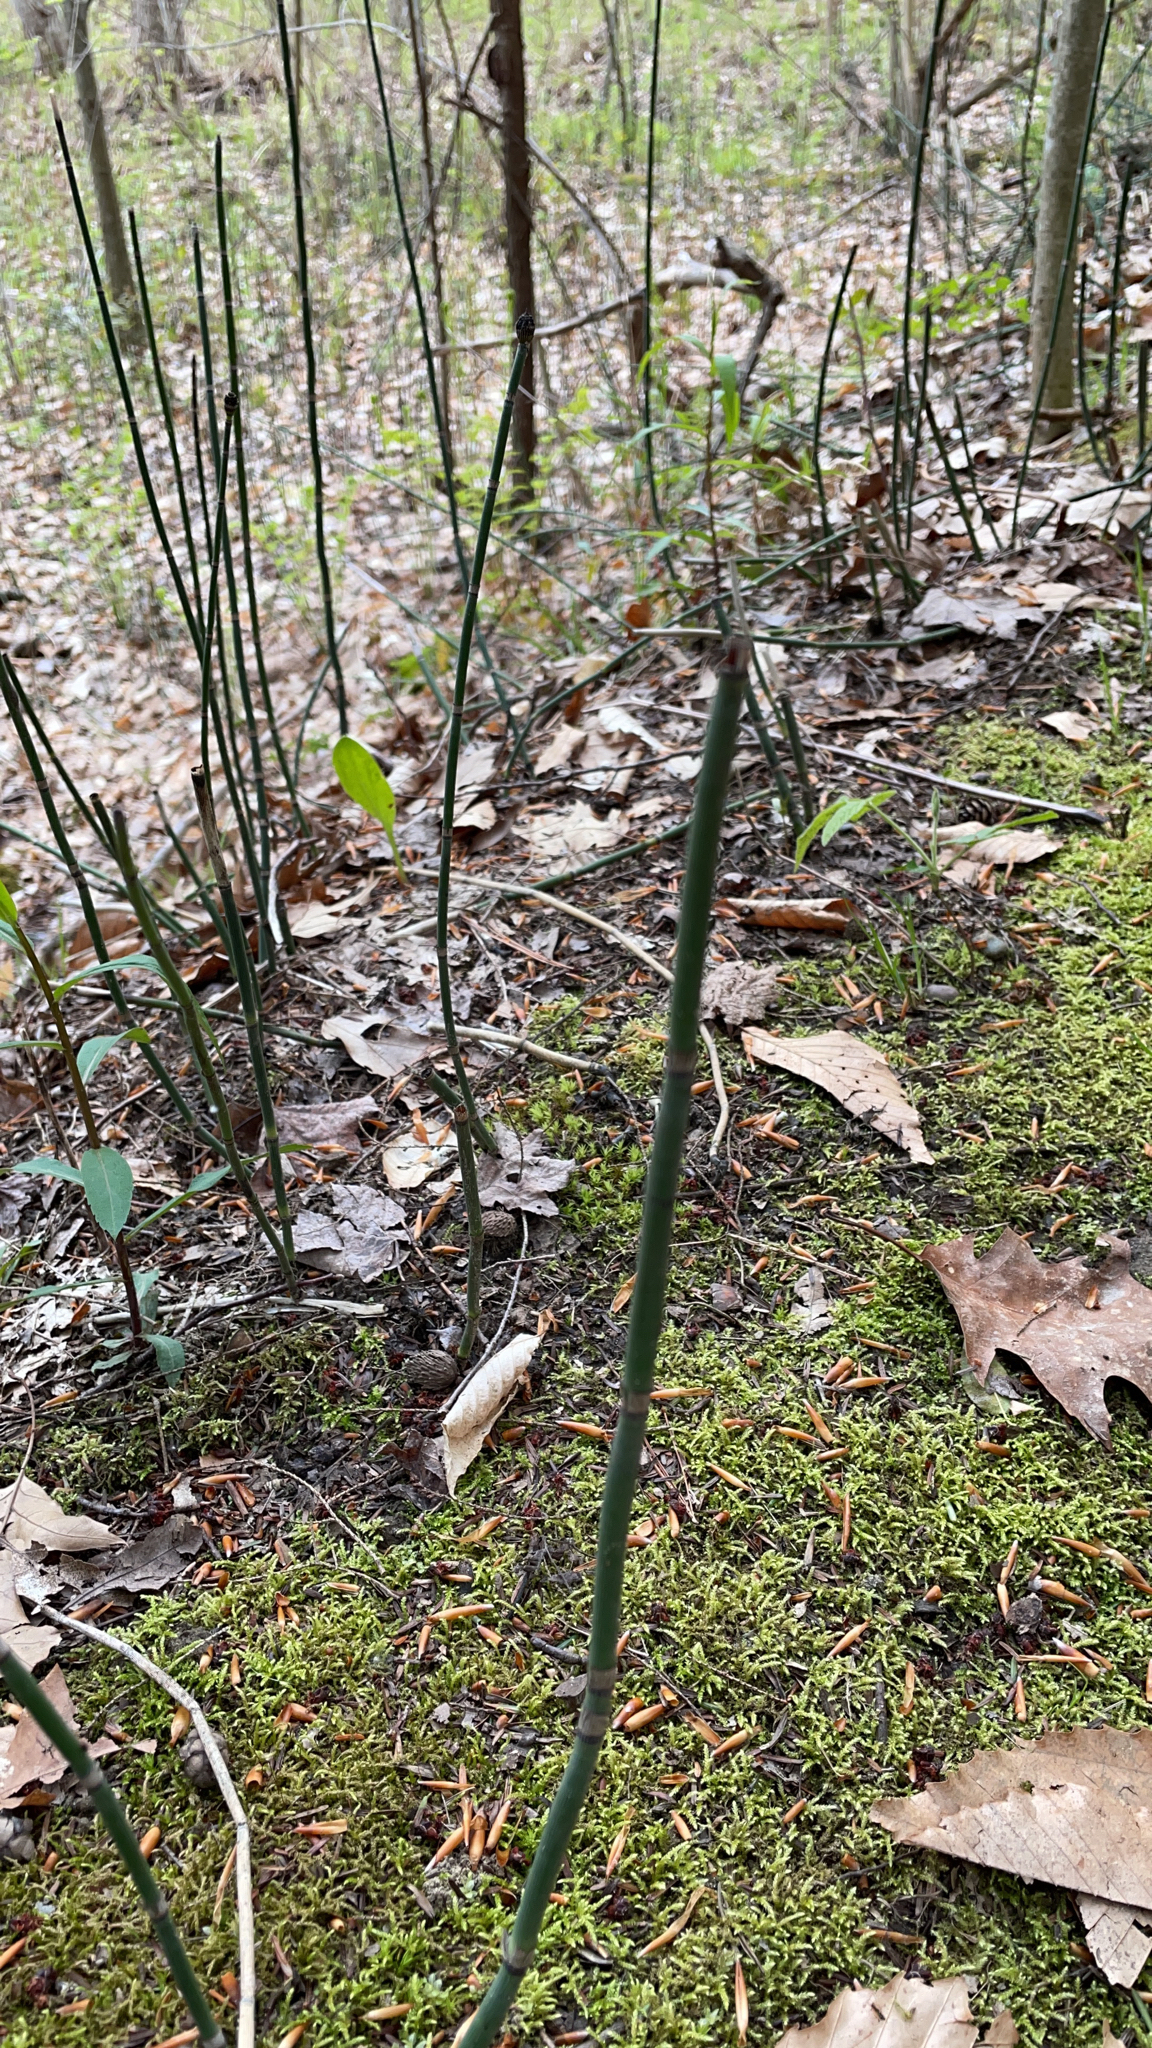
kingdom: Plantae
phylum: Tracheophyta
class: Polypodiopsida
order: Equisetales
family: Equisetaceae
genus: Equisetum
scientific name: Equisetum hyemale
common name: Rough horsetail
